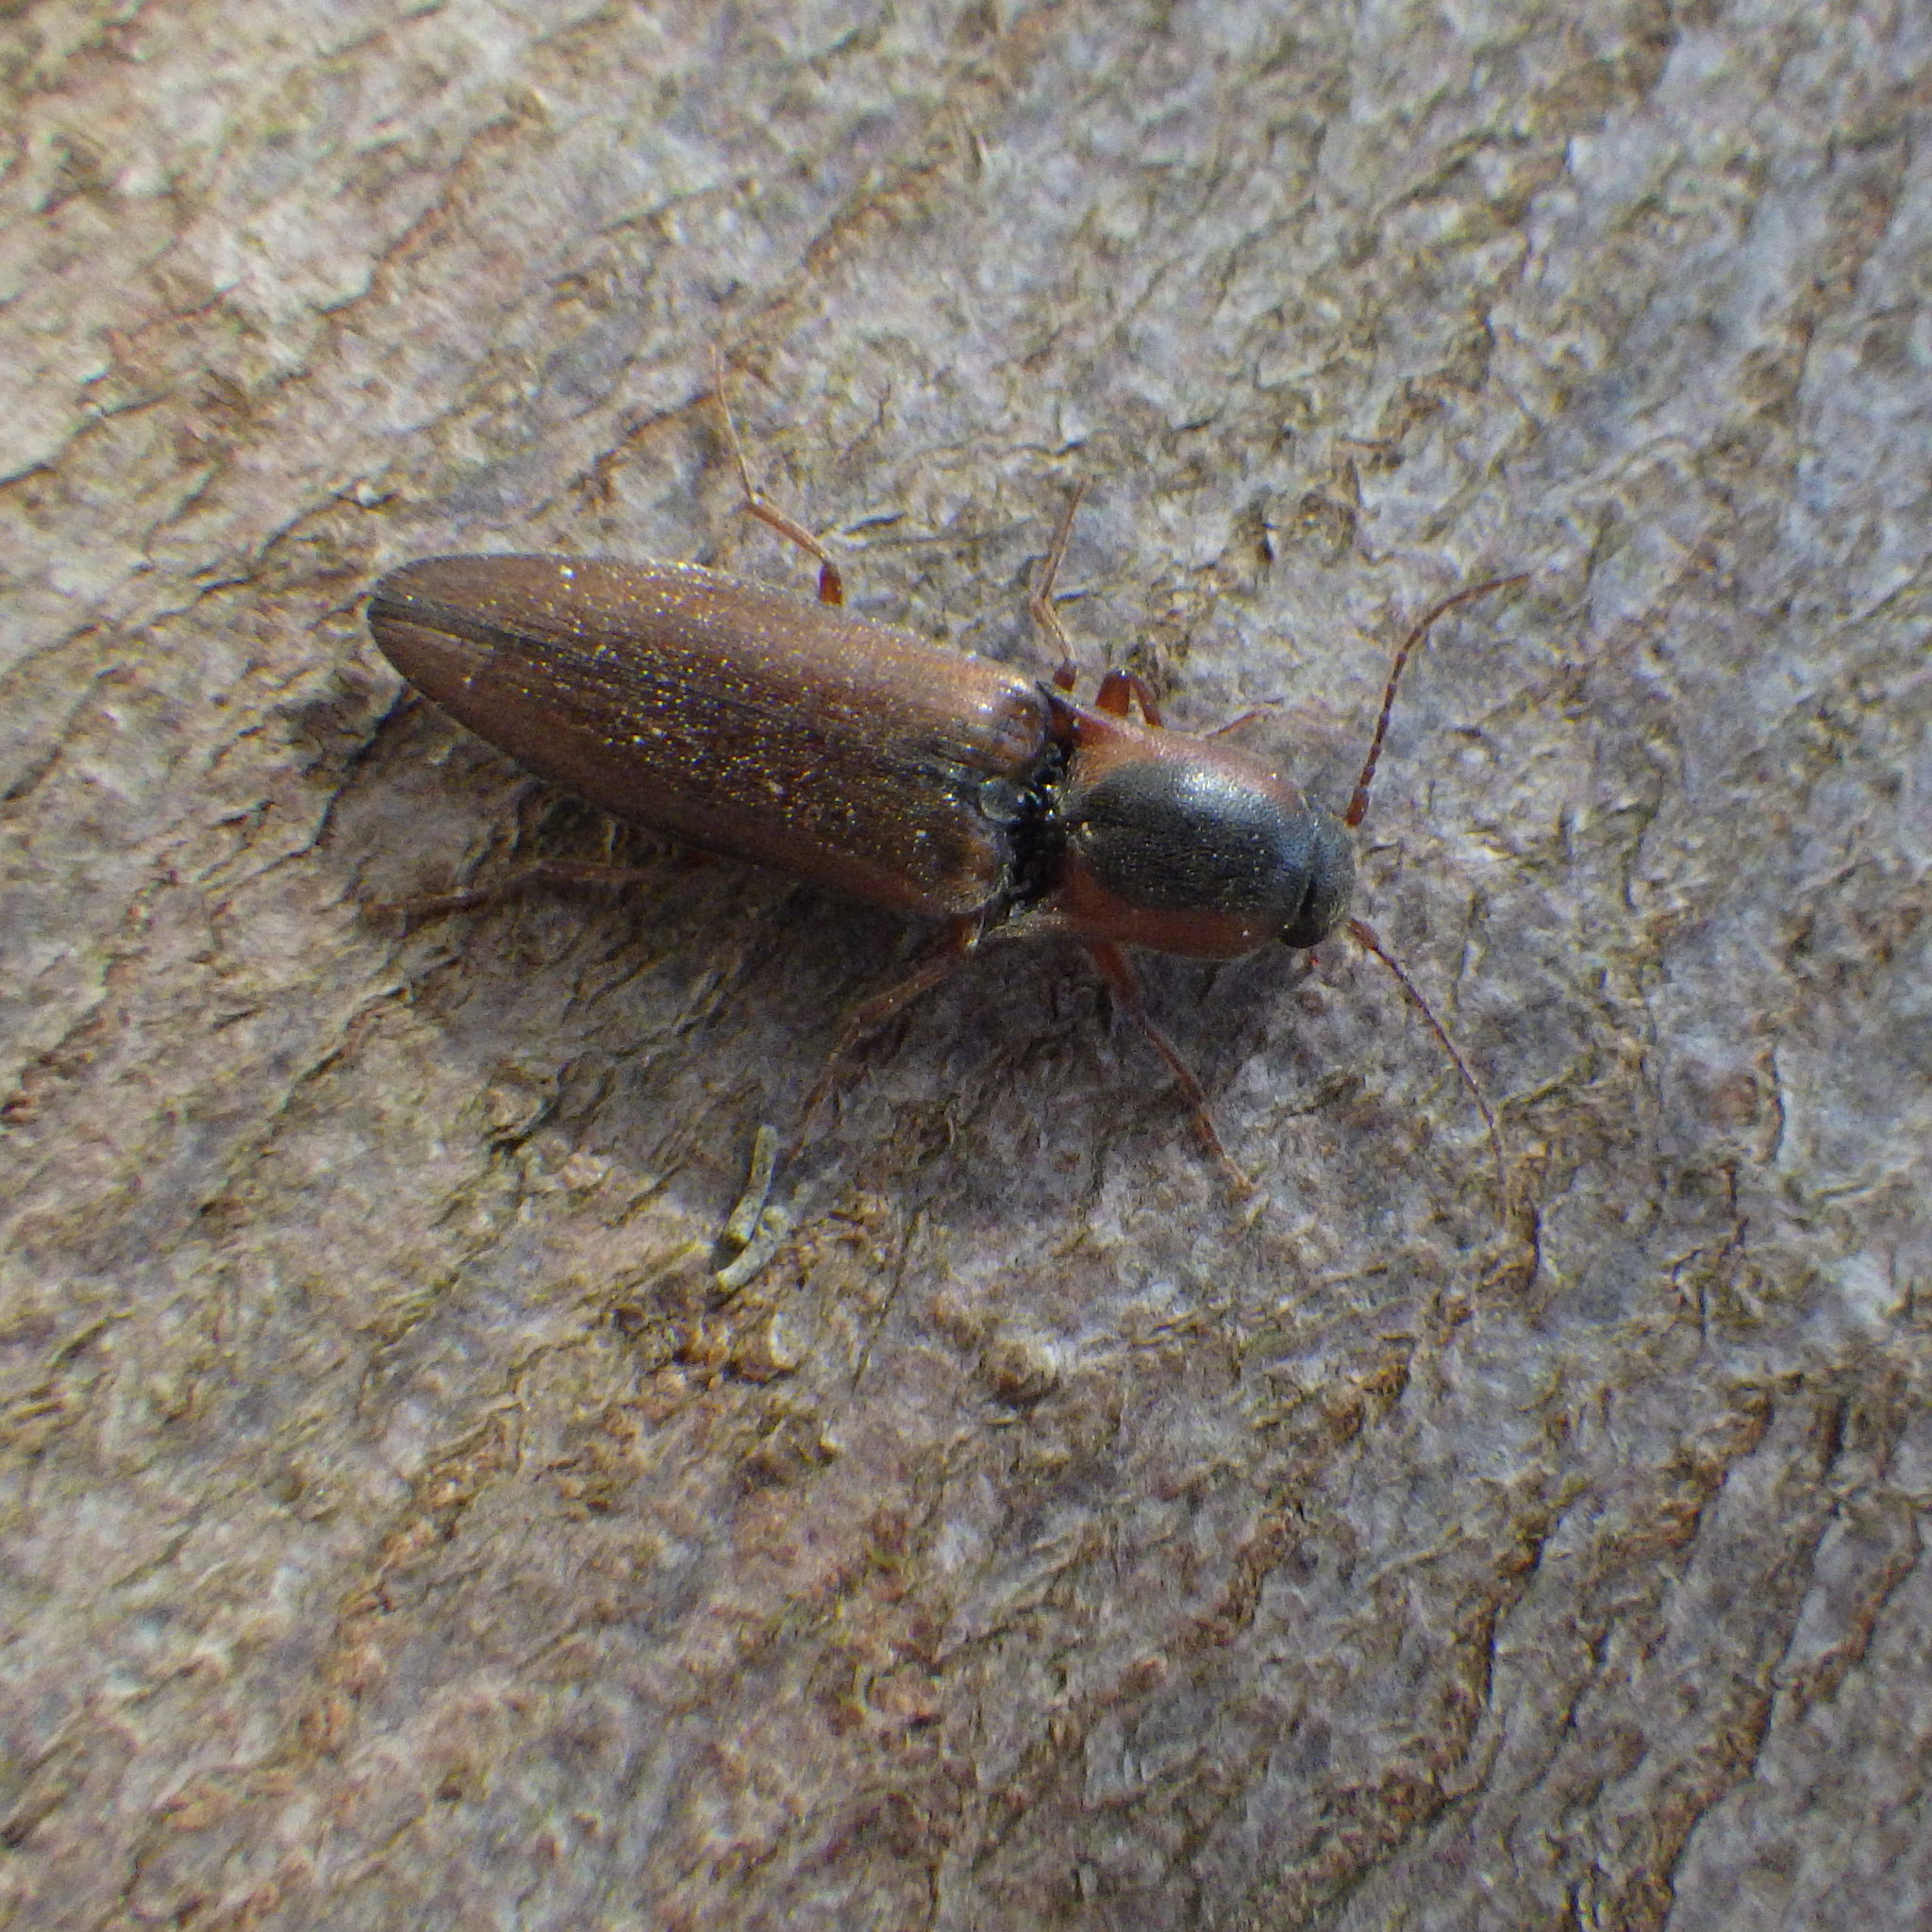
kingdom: Animalia
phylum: Arthropoda
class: Insecta
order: Coleoptera
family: Elateridae
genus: Agriotes
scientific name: Agriotes collaris
